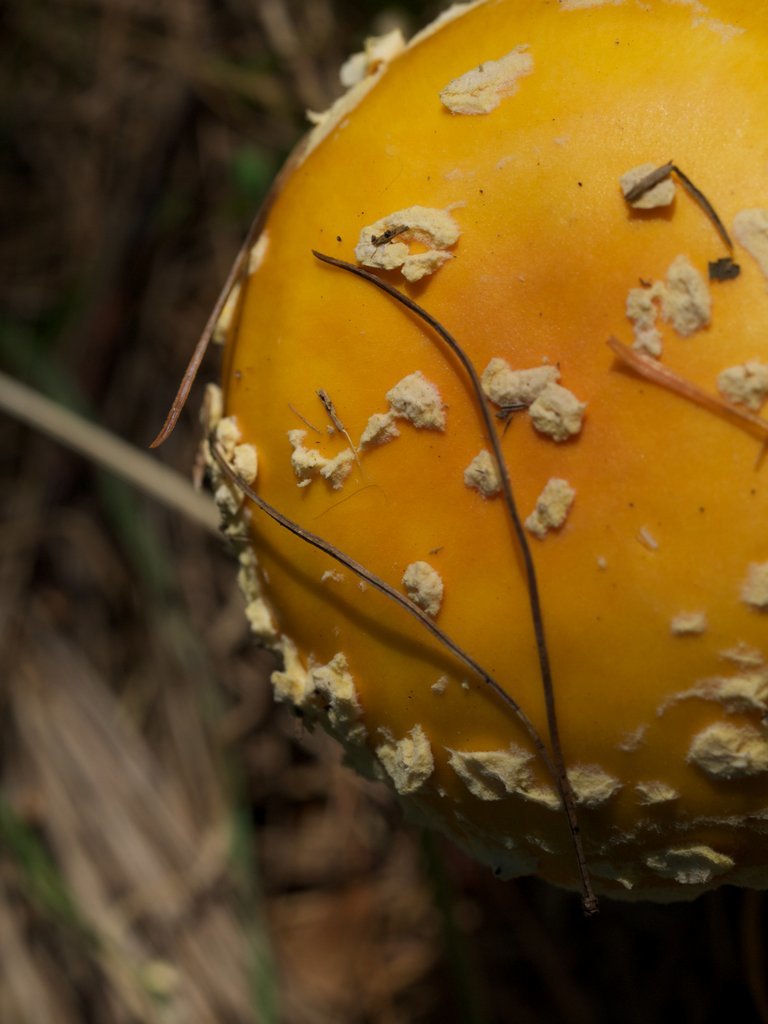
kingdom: Fungi
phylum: Basidiomycota
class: Agaricomycetes
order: Agaricales
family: Amanitaceae
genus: Amanita
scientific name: Amanita muscaria
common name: Fly agaric
